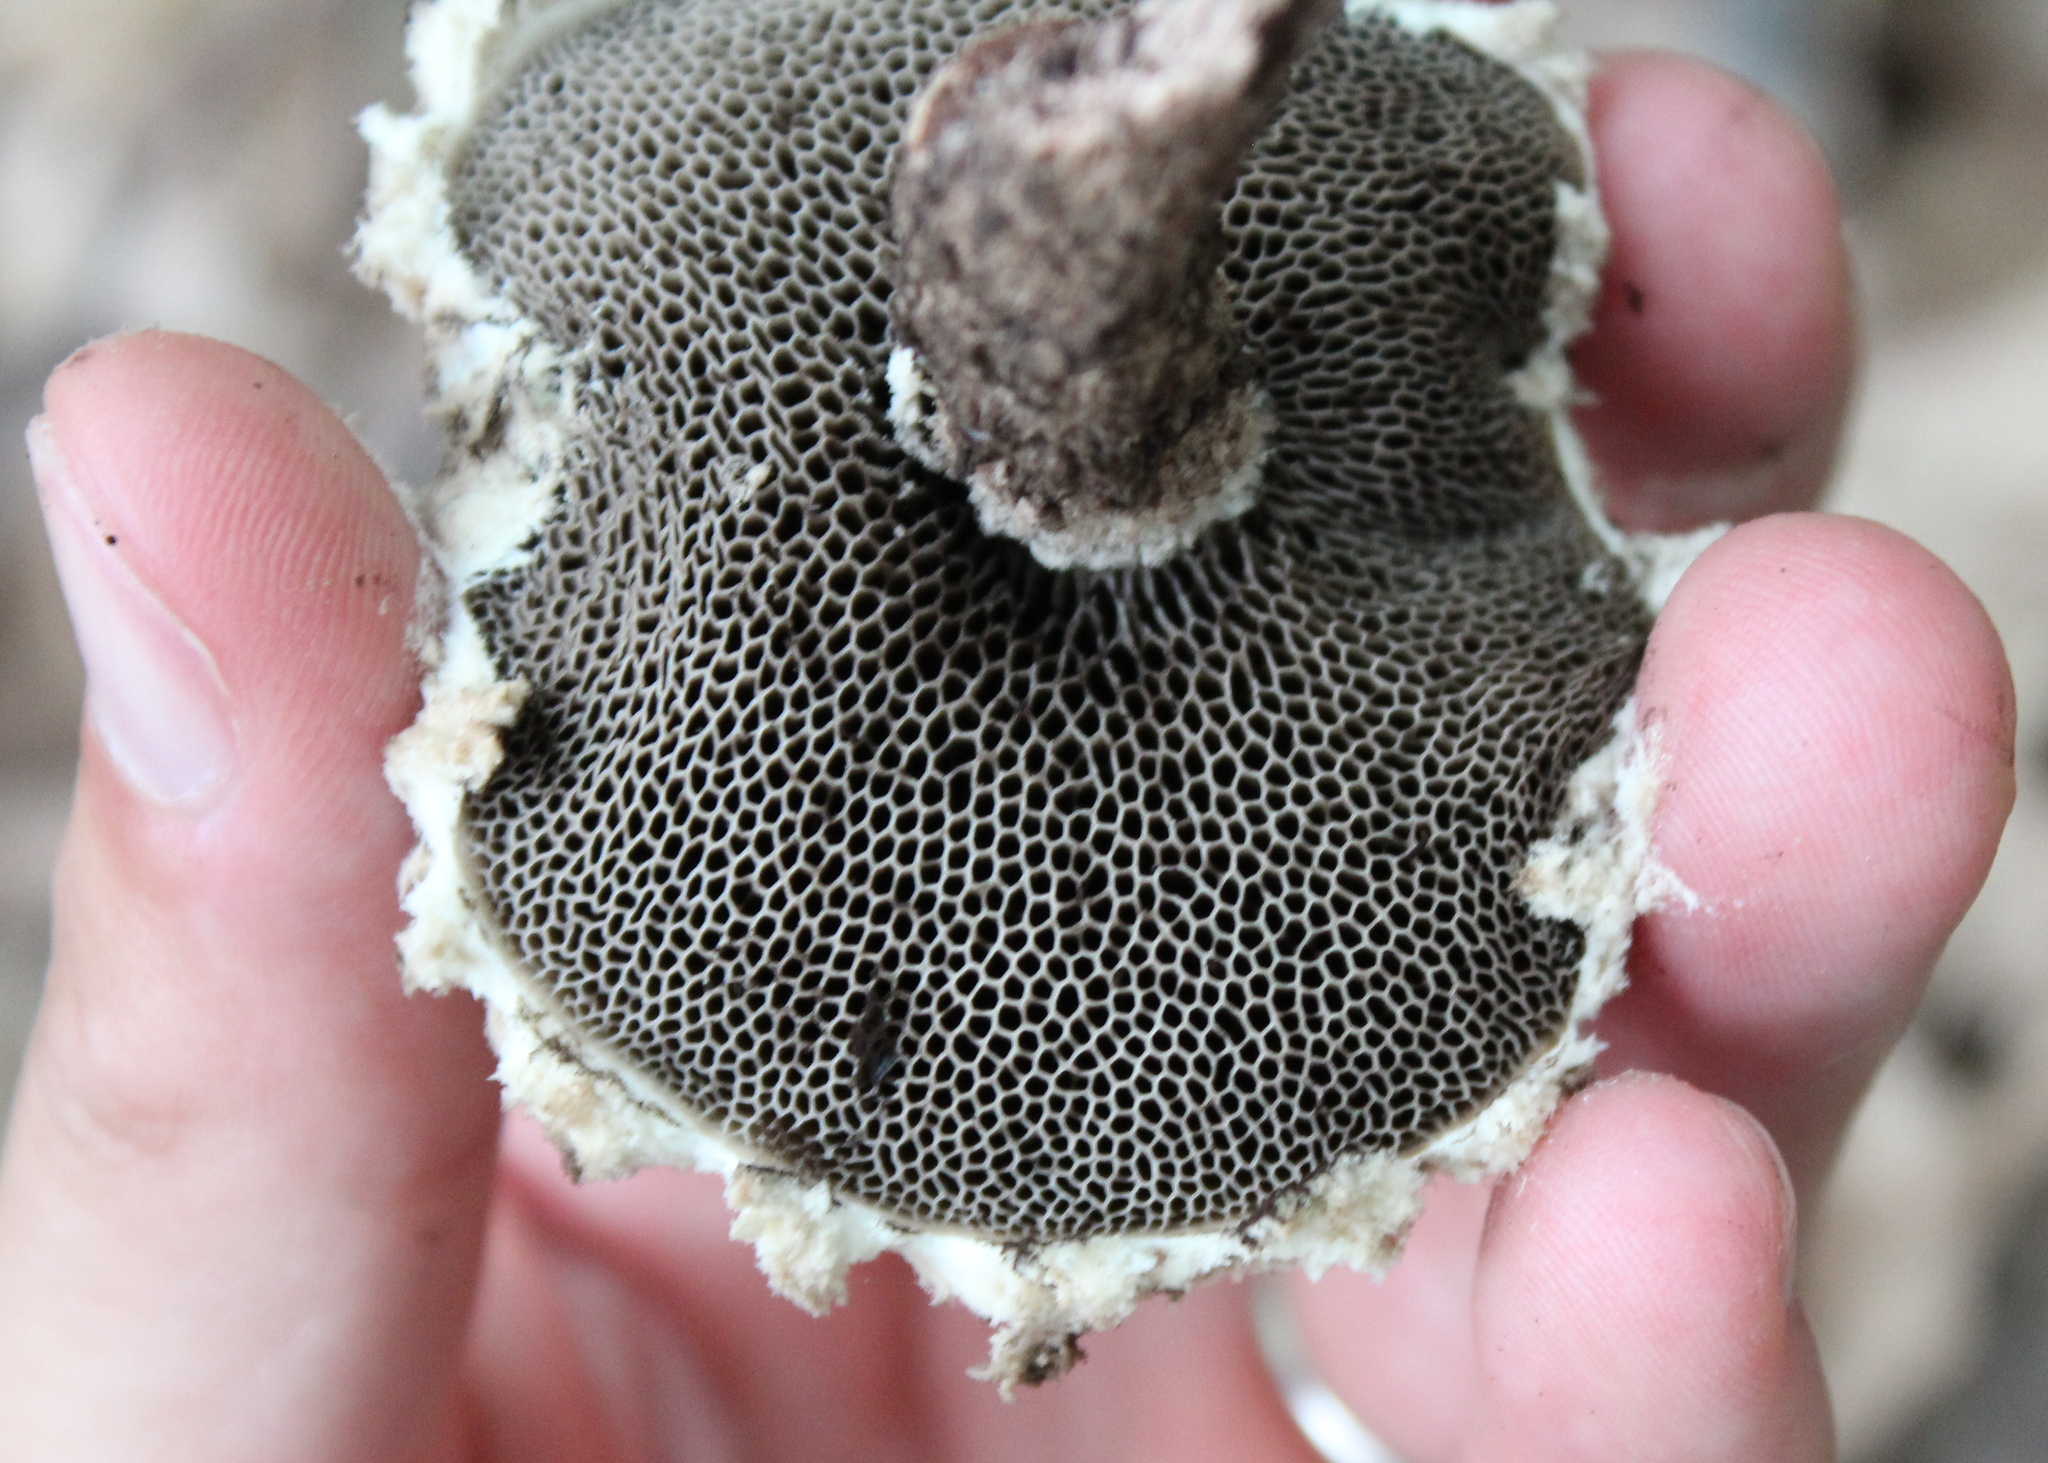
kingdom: Fungi
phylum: Basidiomycota
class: Agaricomycetes
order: Boletales
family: Boletaceae
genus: Strobilomyces
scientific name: Strobilomyces strobilaceus
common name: Old man of the woods
